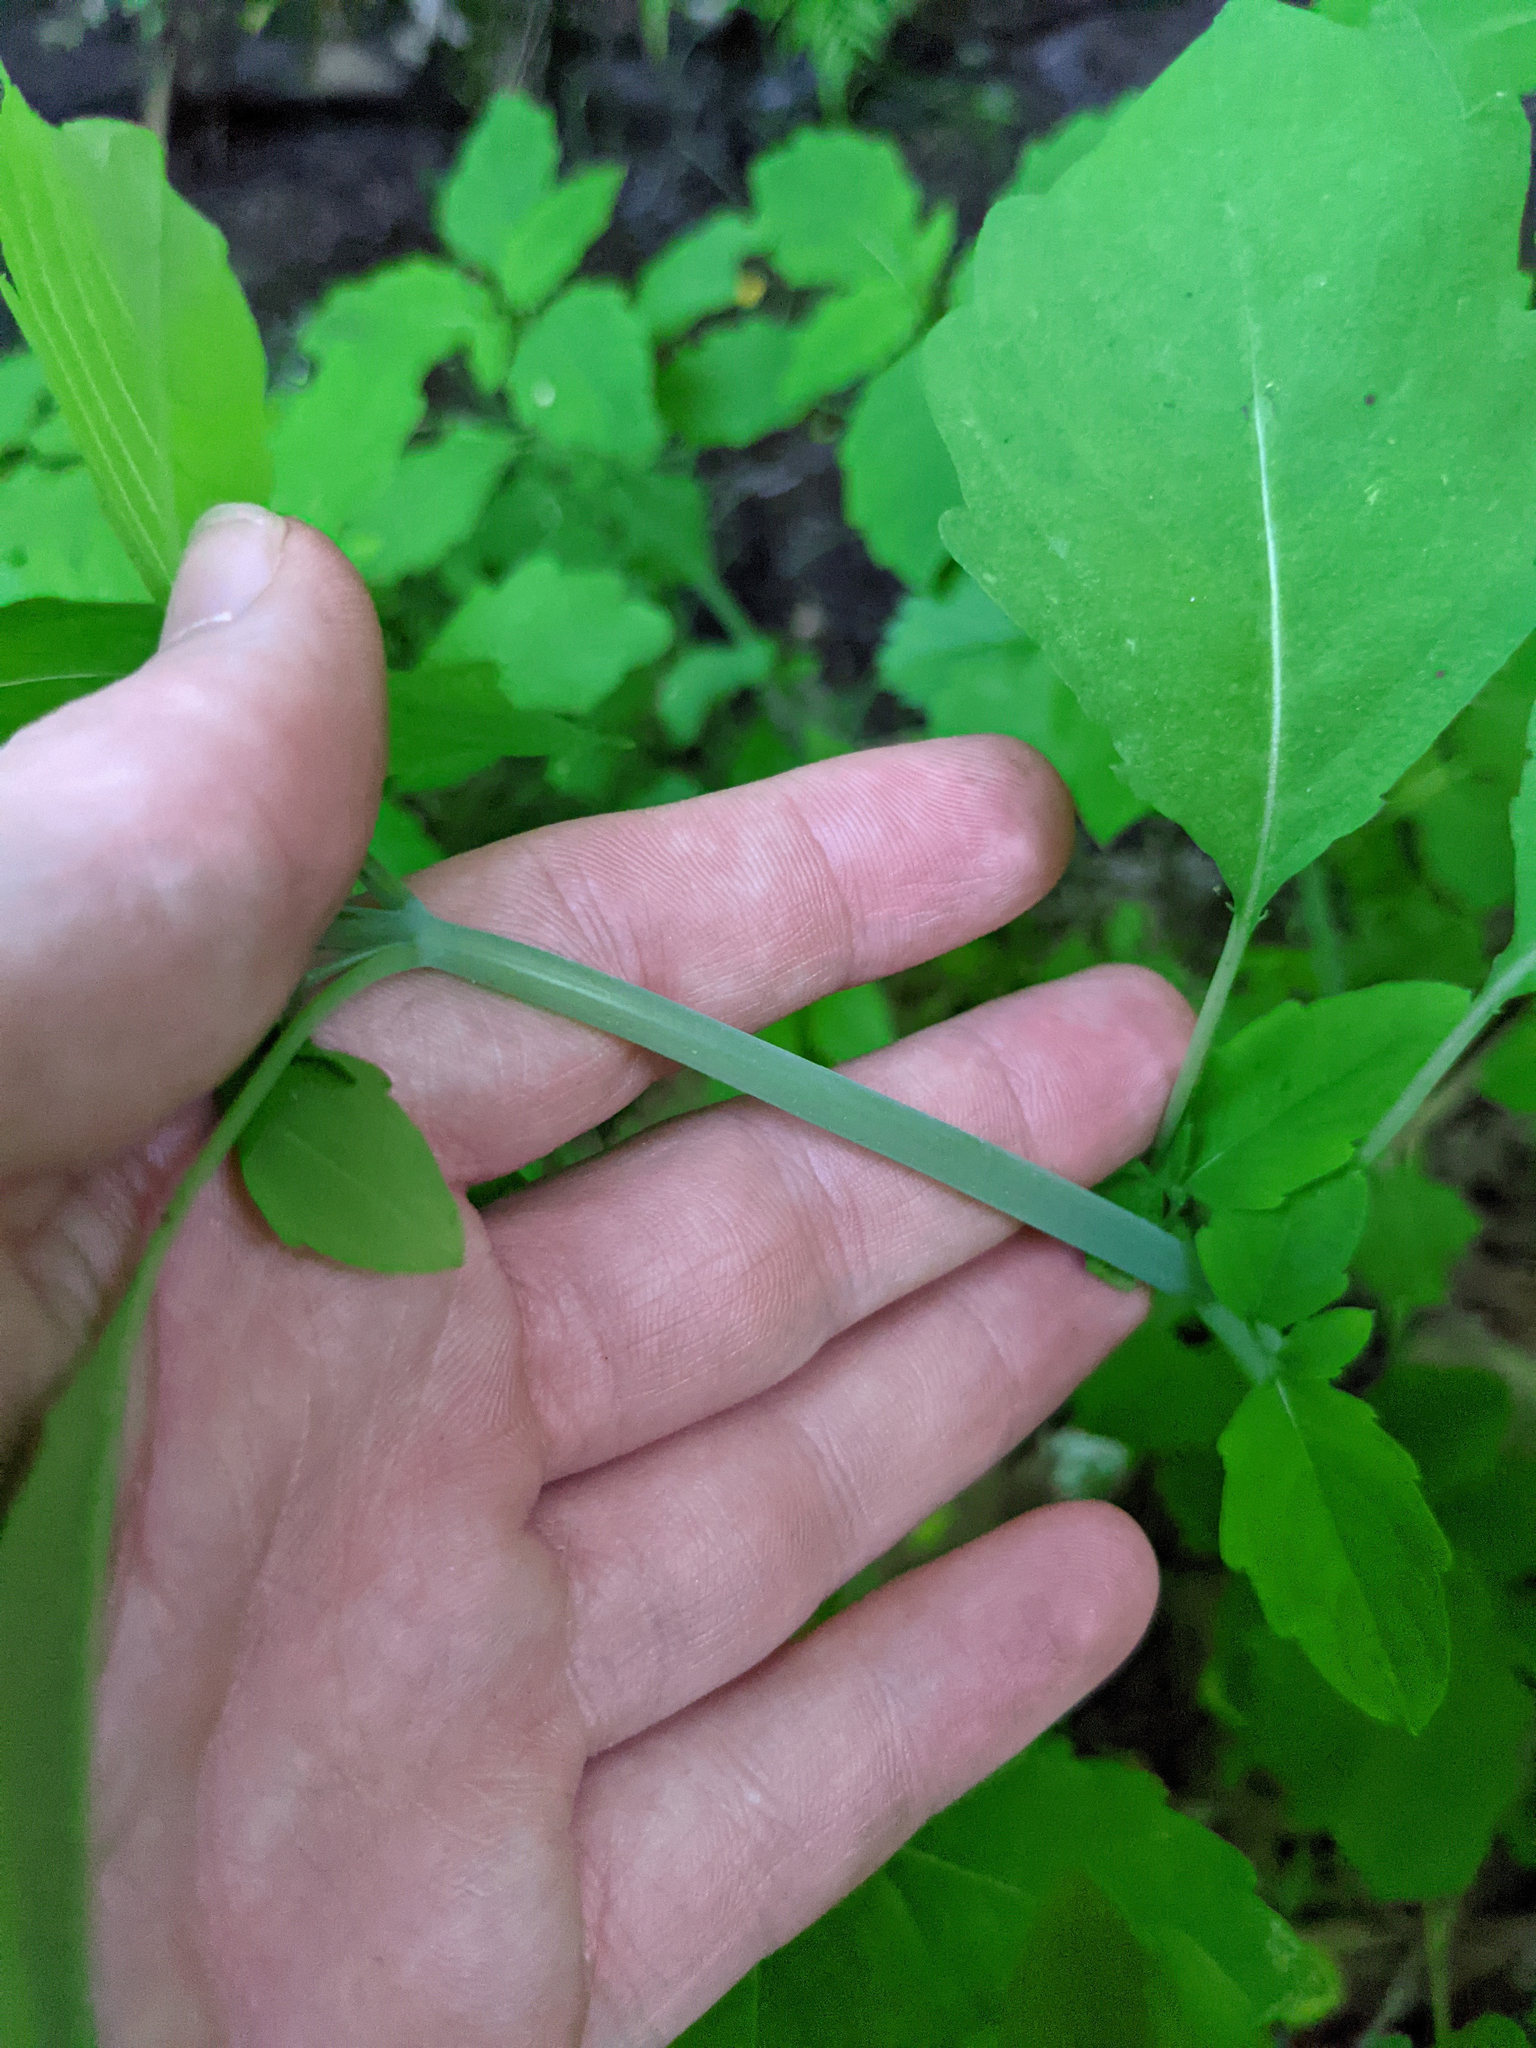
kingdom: Plantae
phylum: Tracheophyta
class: Magnoliopsida
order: Ericales
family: Balsaminaceae
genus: Impatiens
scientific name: Impatiens
